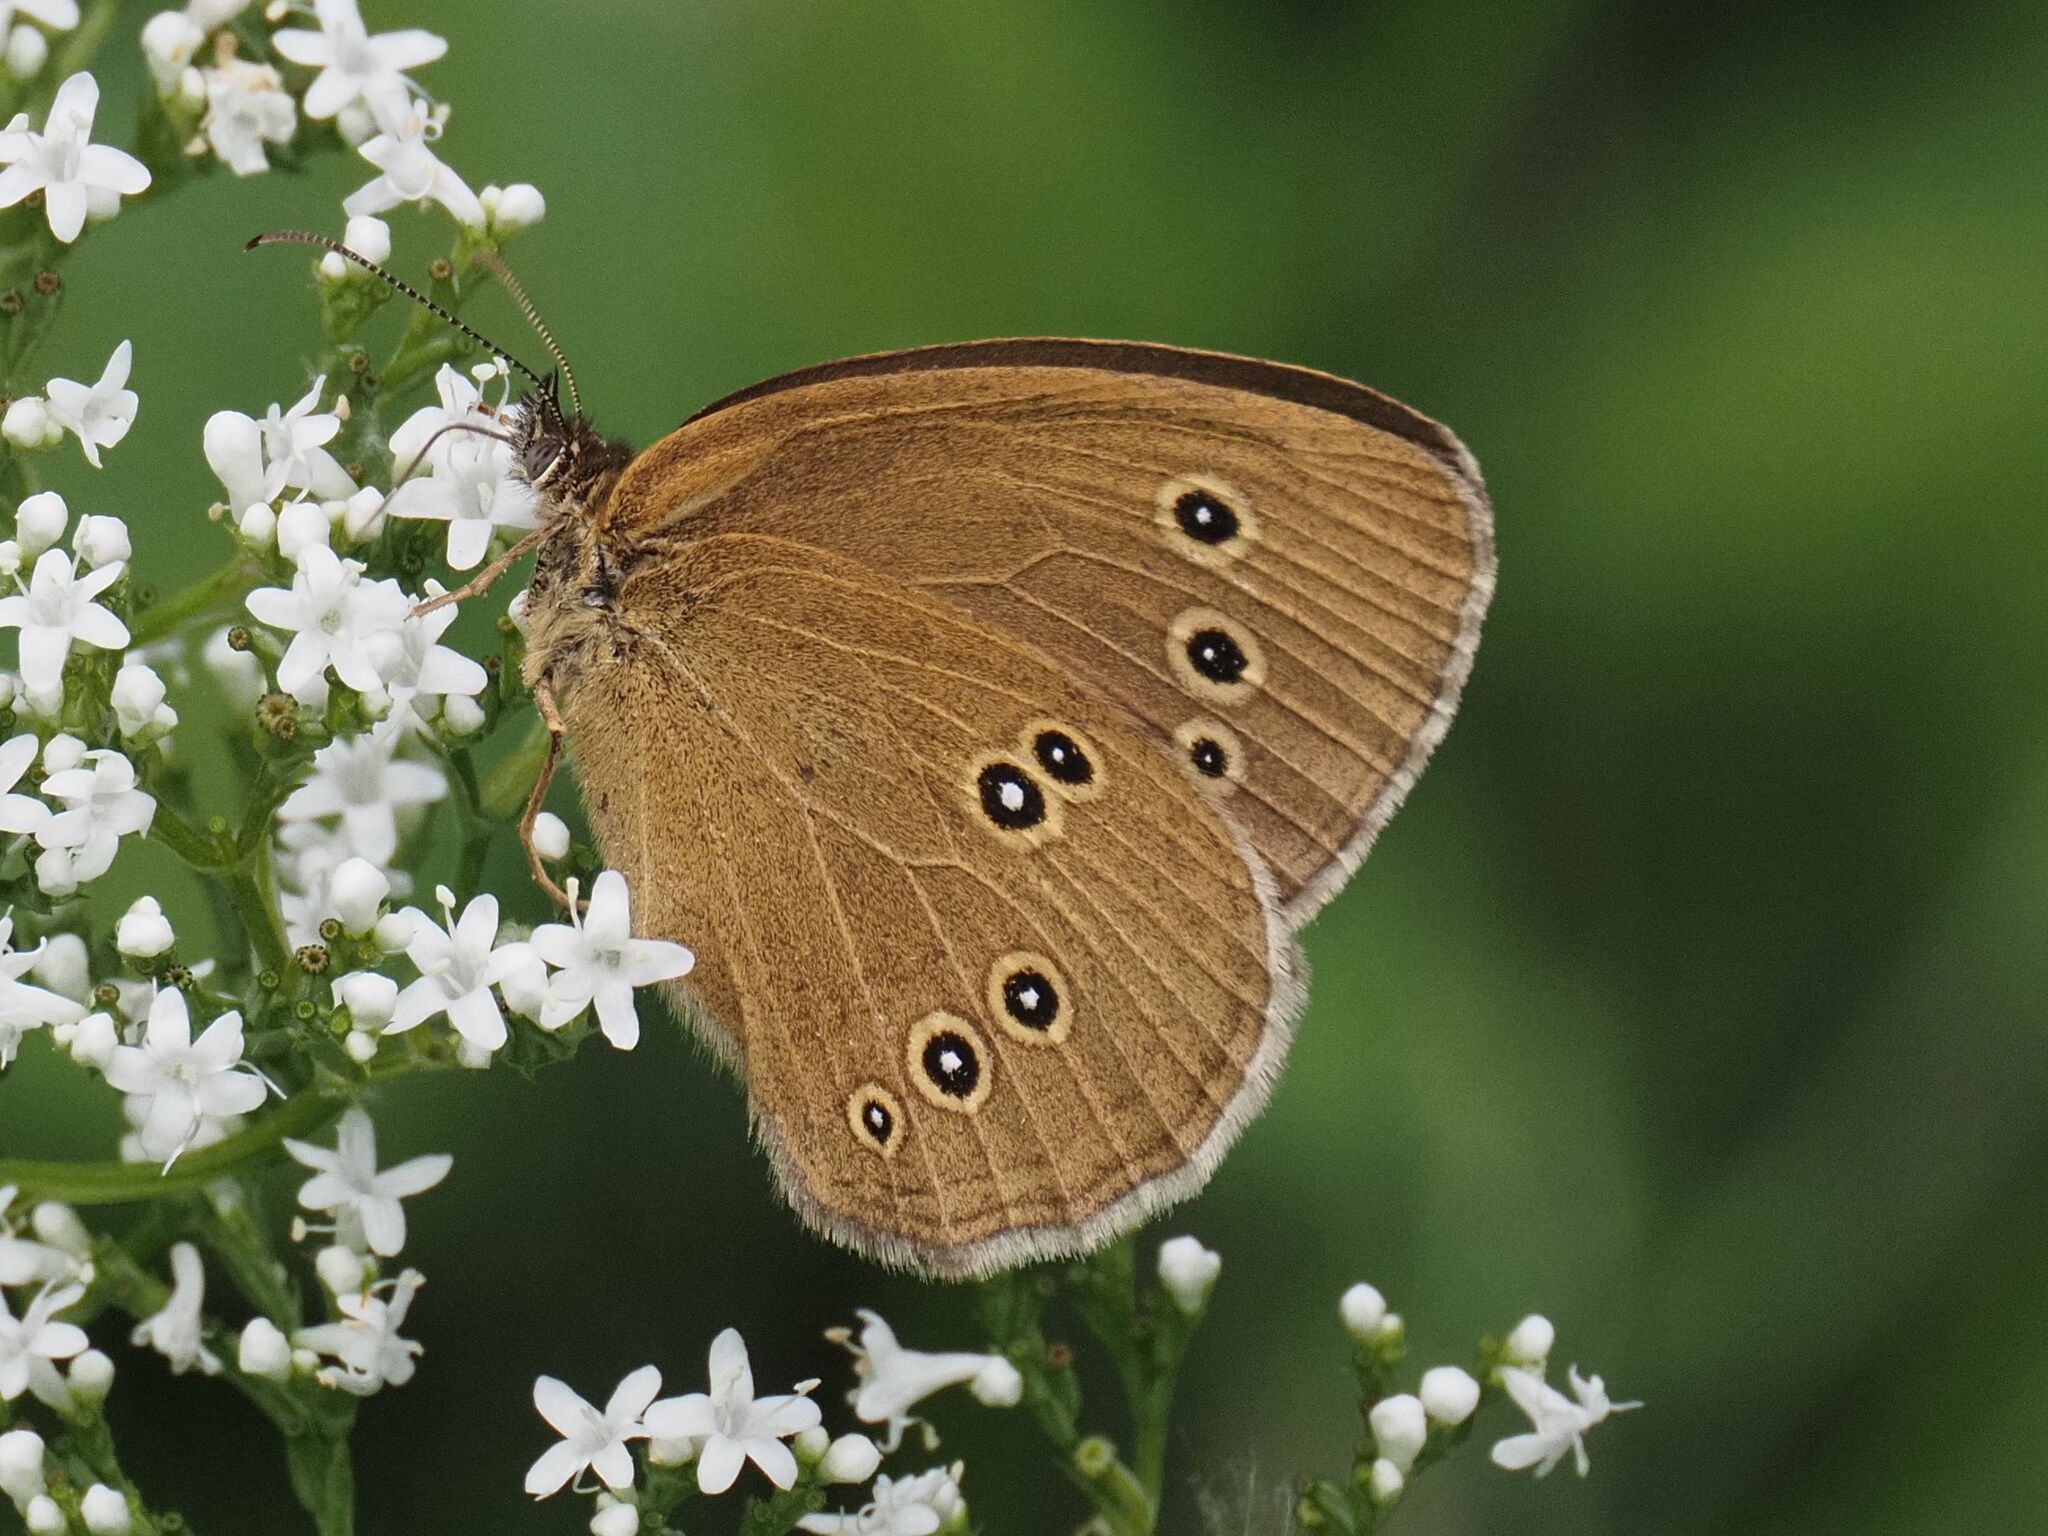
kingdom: Animalia
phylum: Arthropoda
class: Insecta
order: Lepidoptera
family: Nymphalidae
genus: Aphantopus
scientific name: Aphantopus hyperantus
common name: Ringlet
